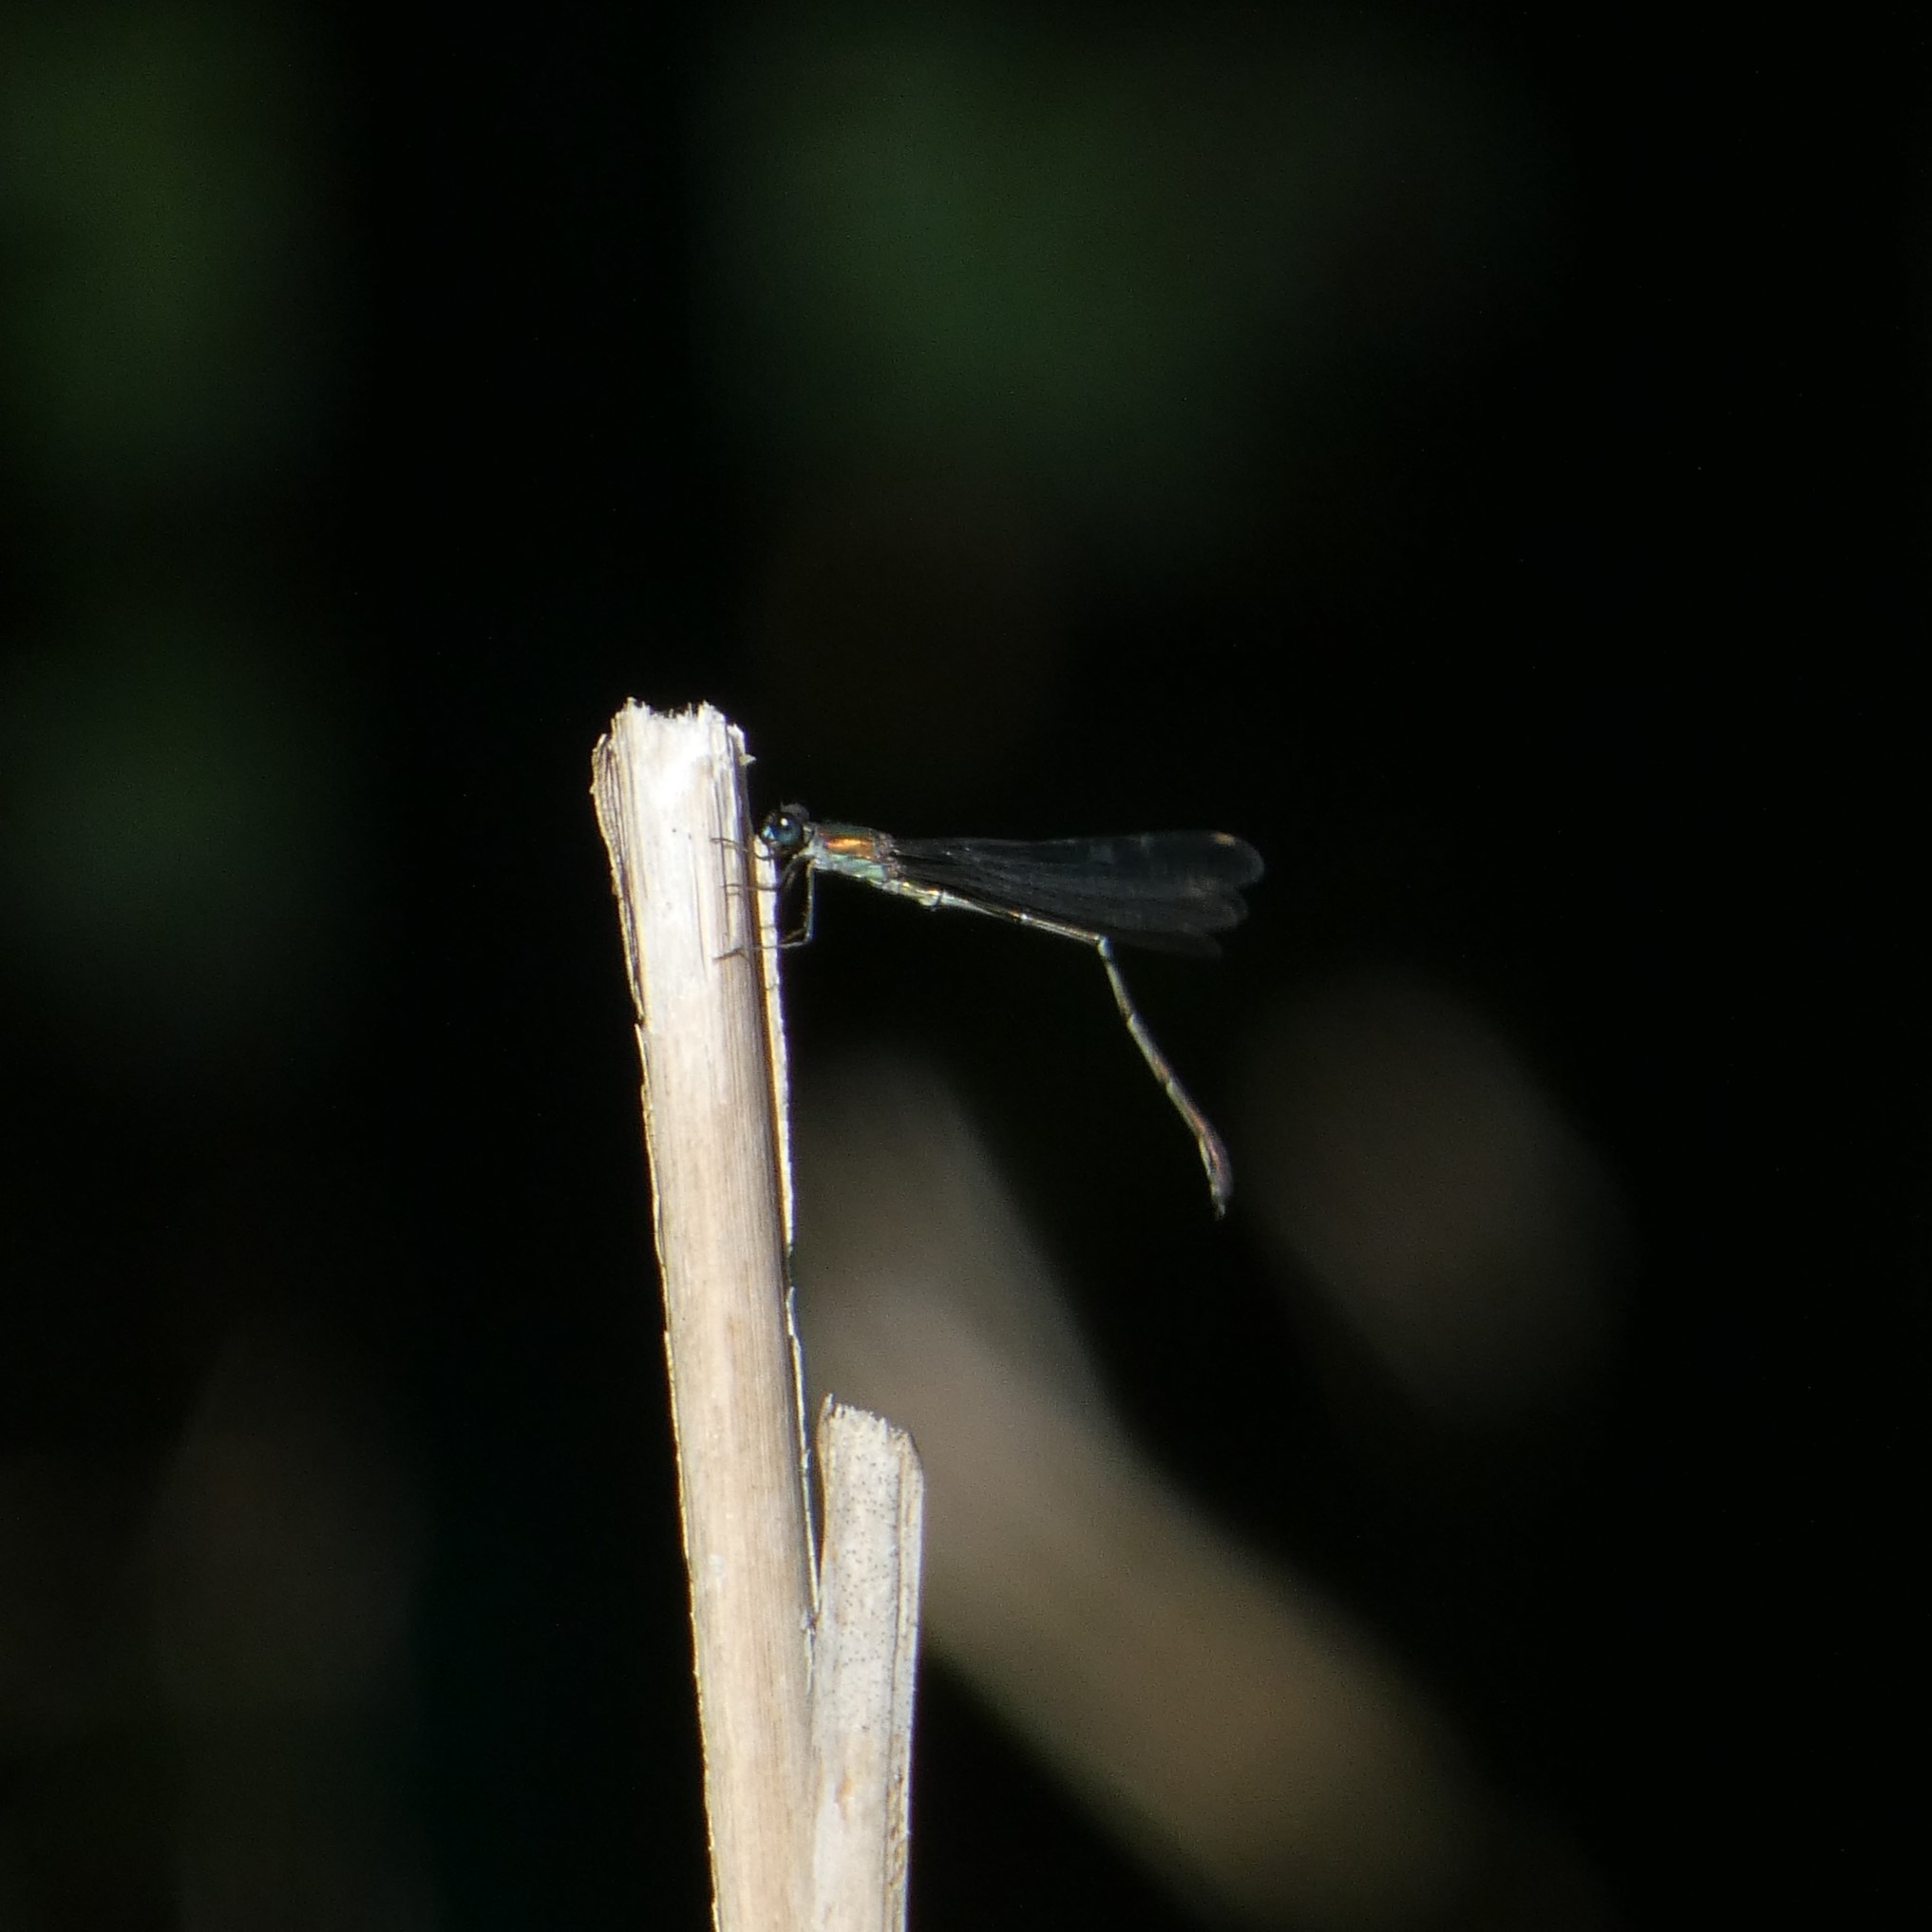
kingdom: Animalia
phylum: Arthropoda
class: Insecta
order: Odonata
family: Lestidae
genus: Chalcolestes
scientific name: Chalcolestes viridis
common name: Green emerald damselfly
